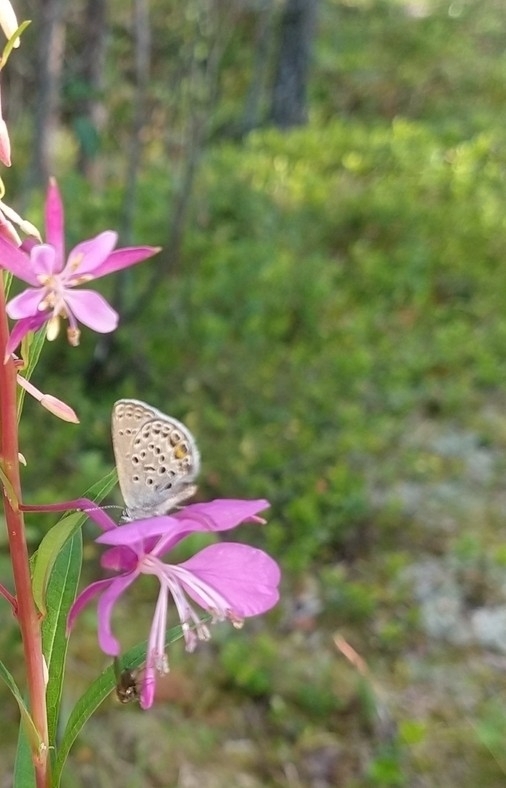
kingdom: Animalia
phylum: Arthropoda
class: Insecta
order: Lepidoptera
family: Lycaenidae
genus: Vacciniina
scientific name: Vacciniina optilete
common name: Cranberry blue
